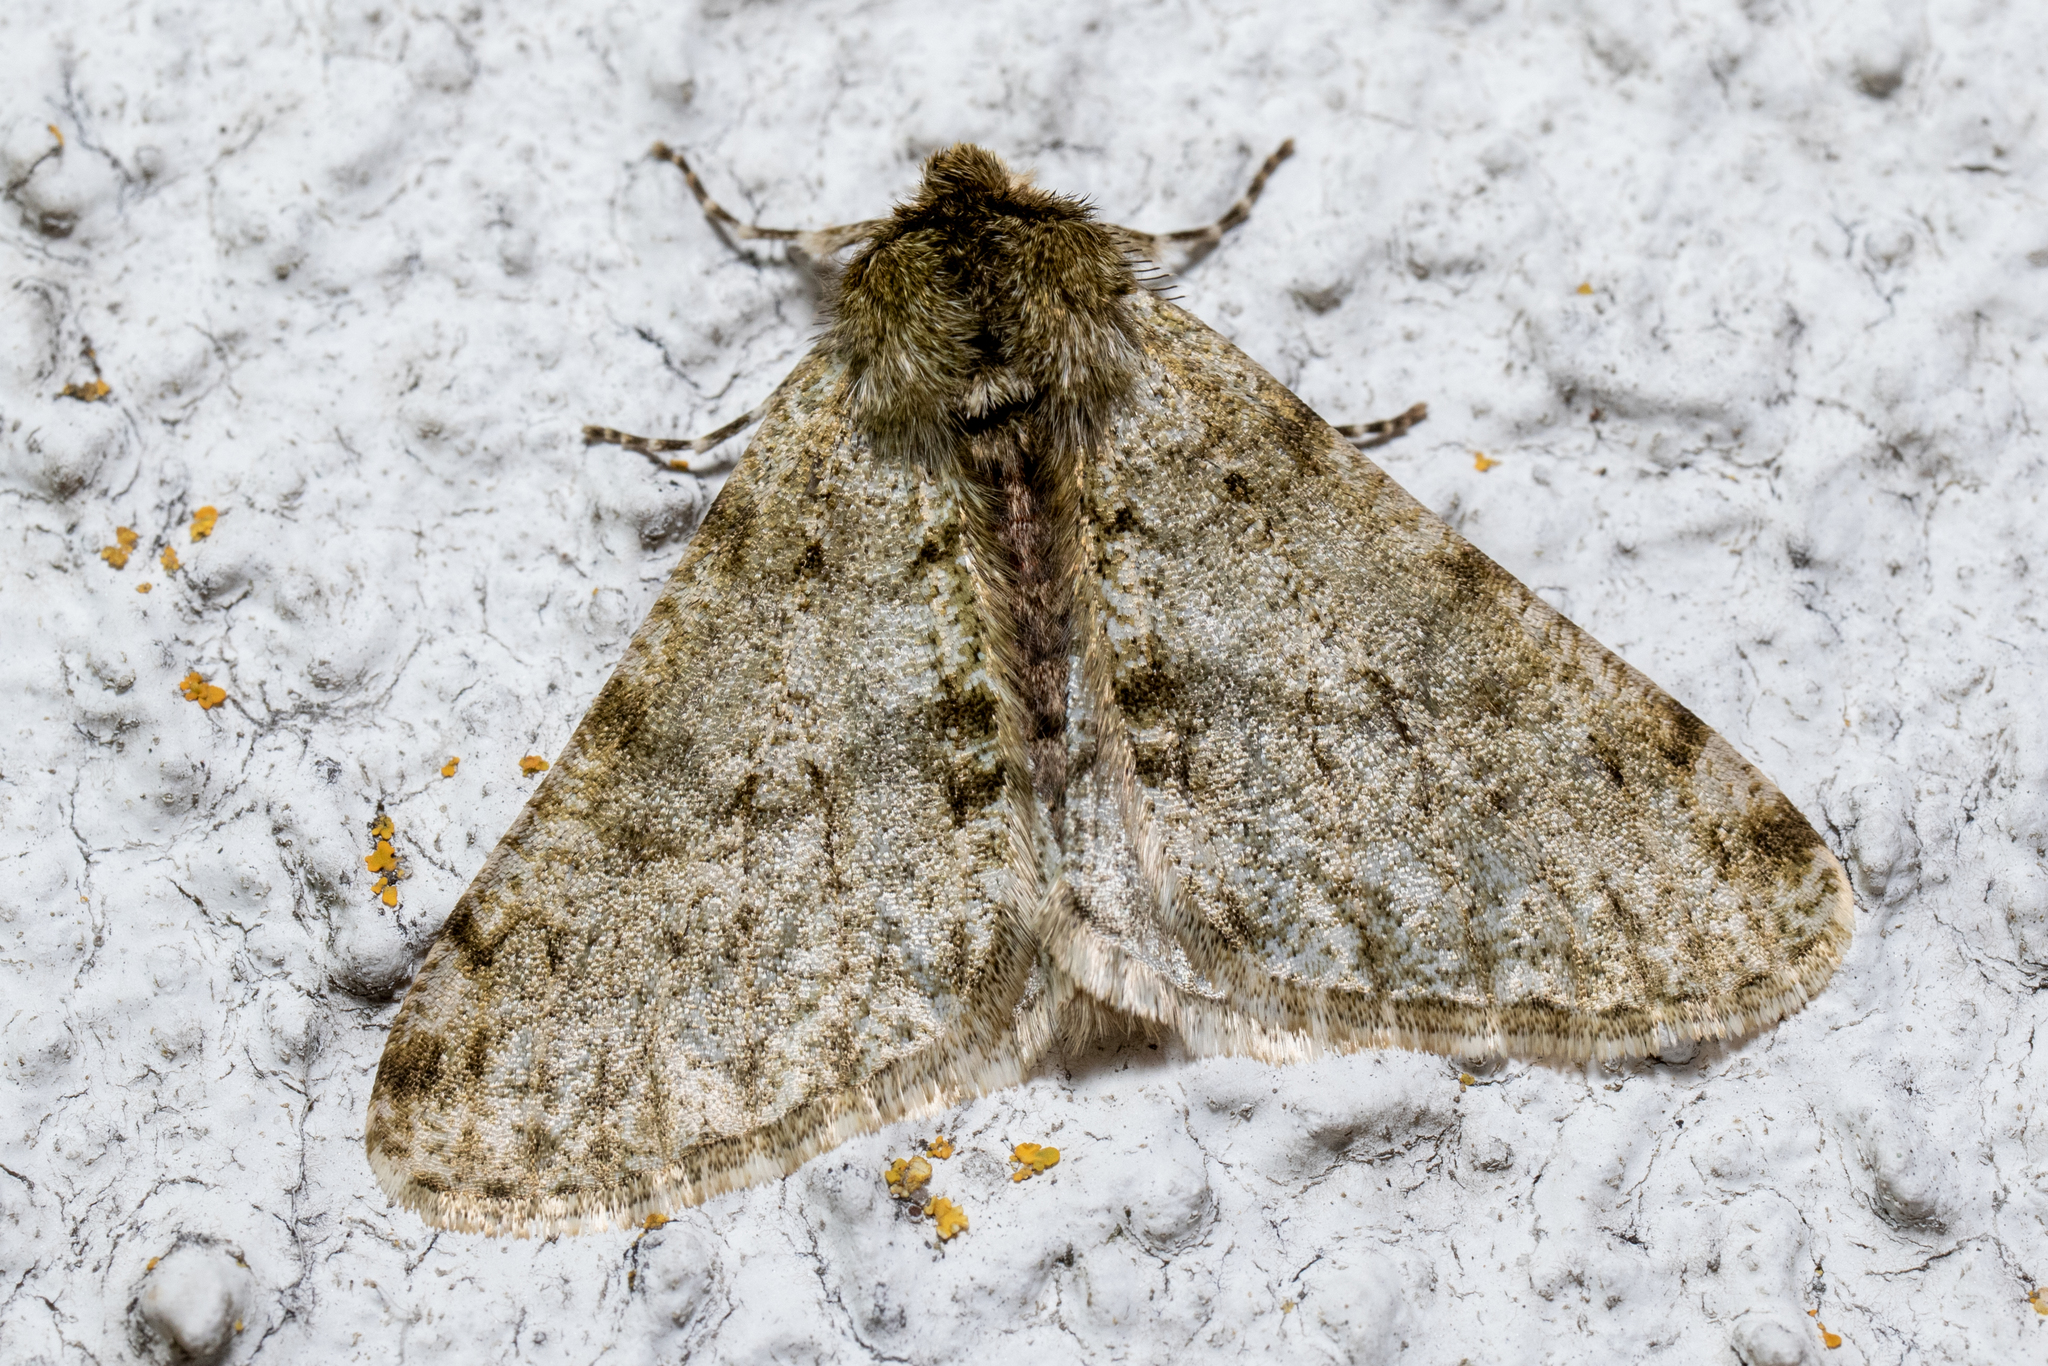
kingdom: Animalia
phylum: Arthropoda
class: Insecta
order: Lepidoptera
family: Geometridae
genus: Phigalia
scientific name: Phigalia pilosaria
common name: Pale brindled beauty
